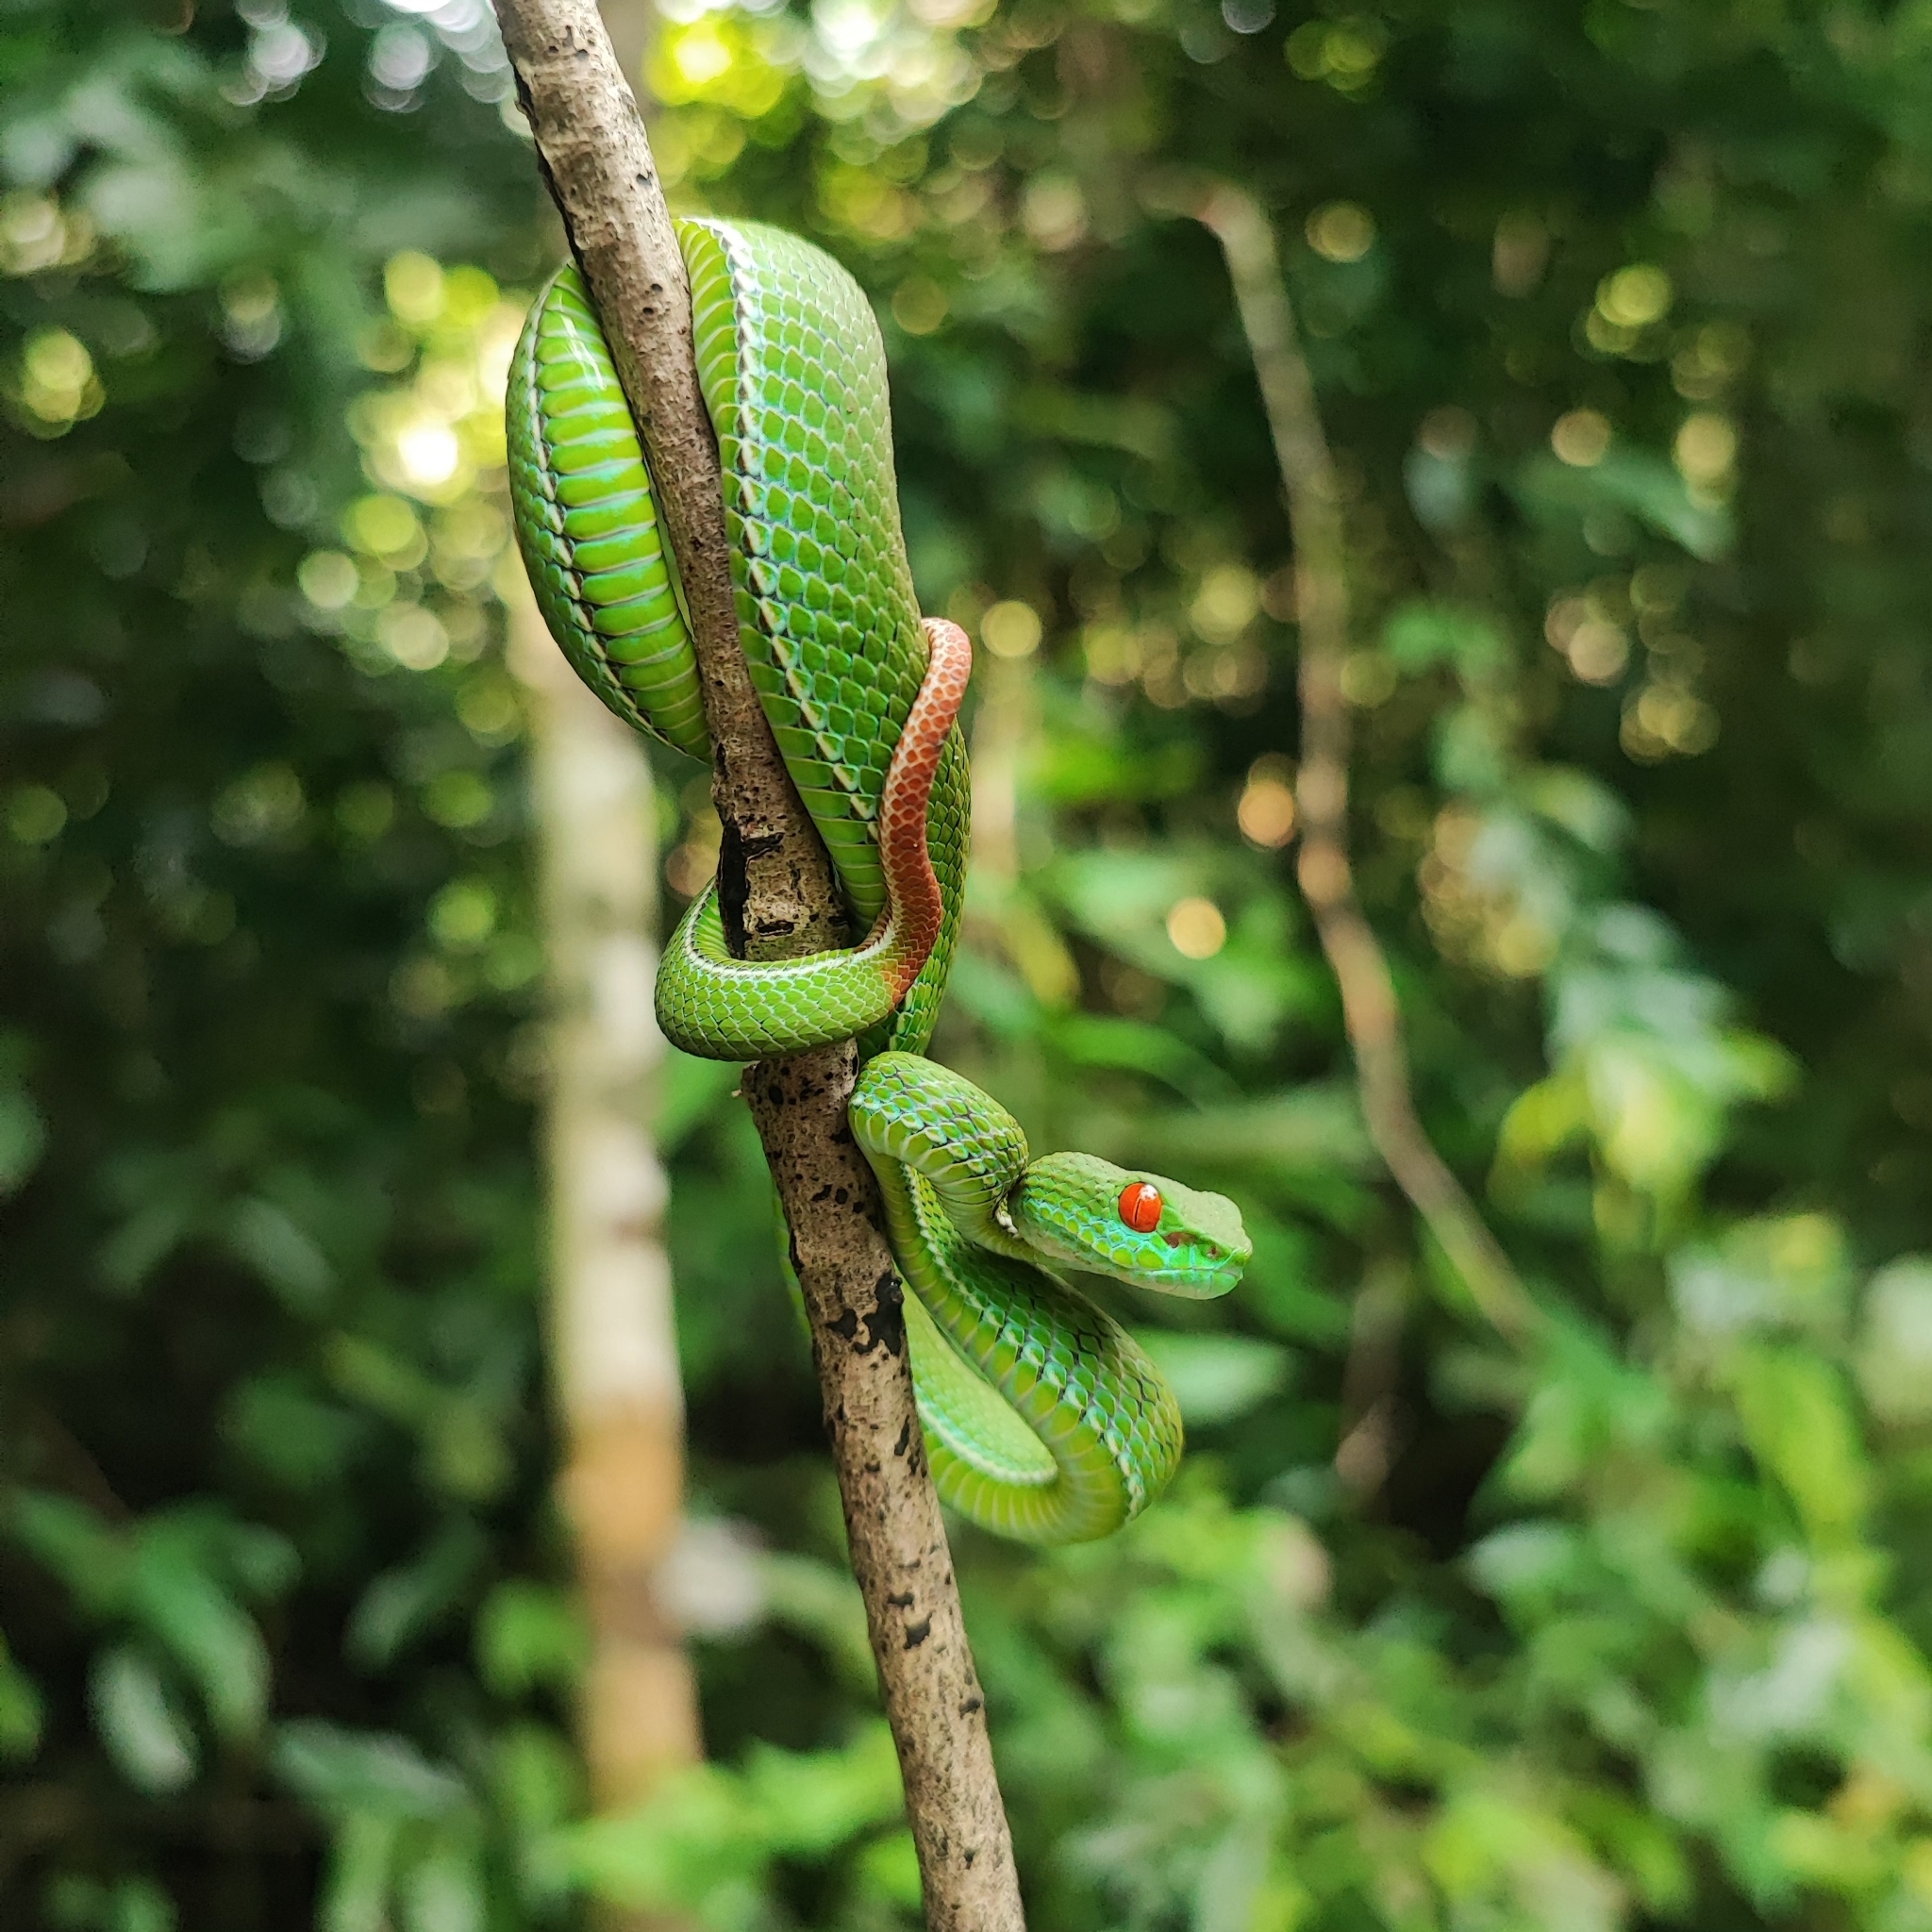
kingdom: Animalia
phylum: Chordata
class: Squamata
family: Viperidae
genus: Craspedocephalus
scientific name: Craspedocephalus rubeus
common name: Ruby-eyed green pitviper
